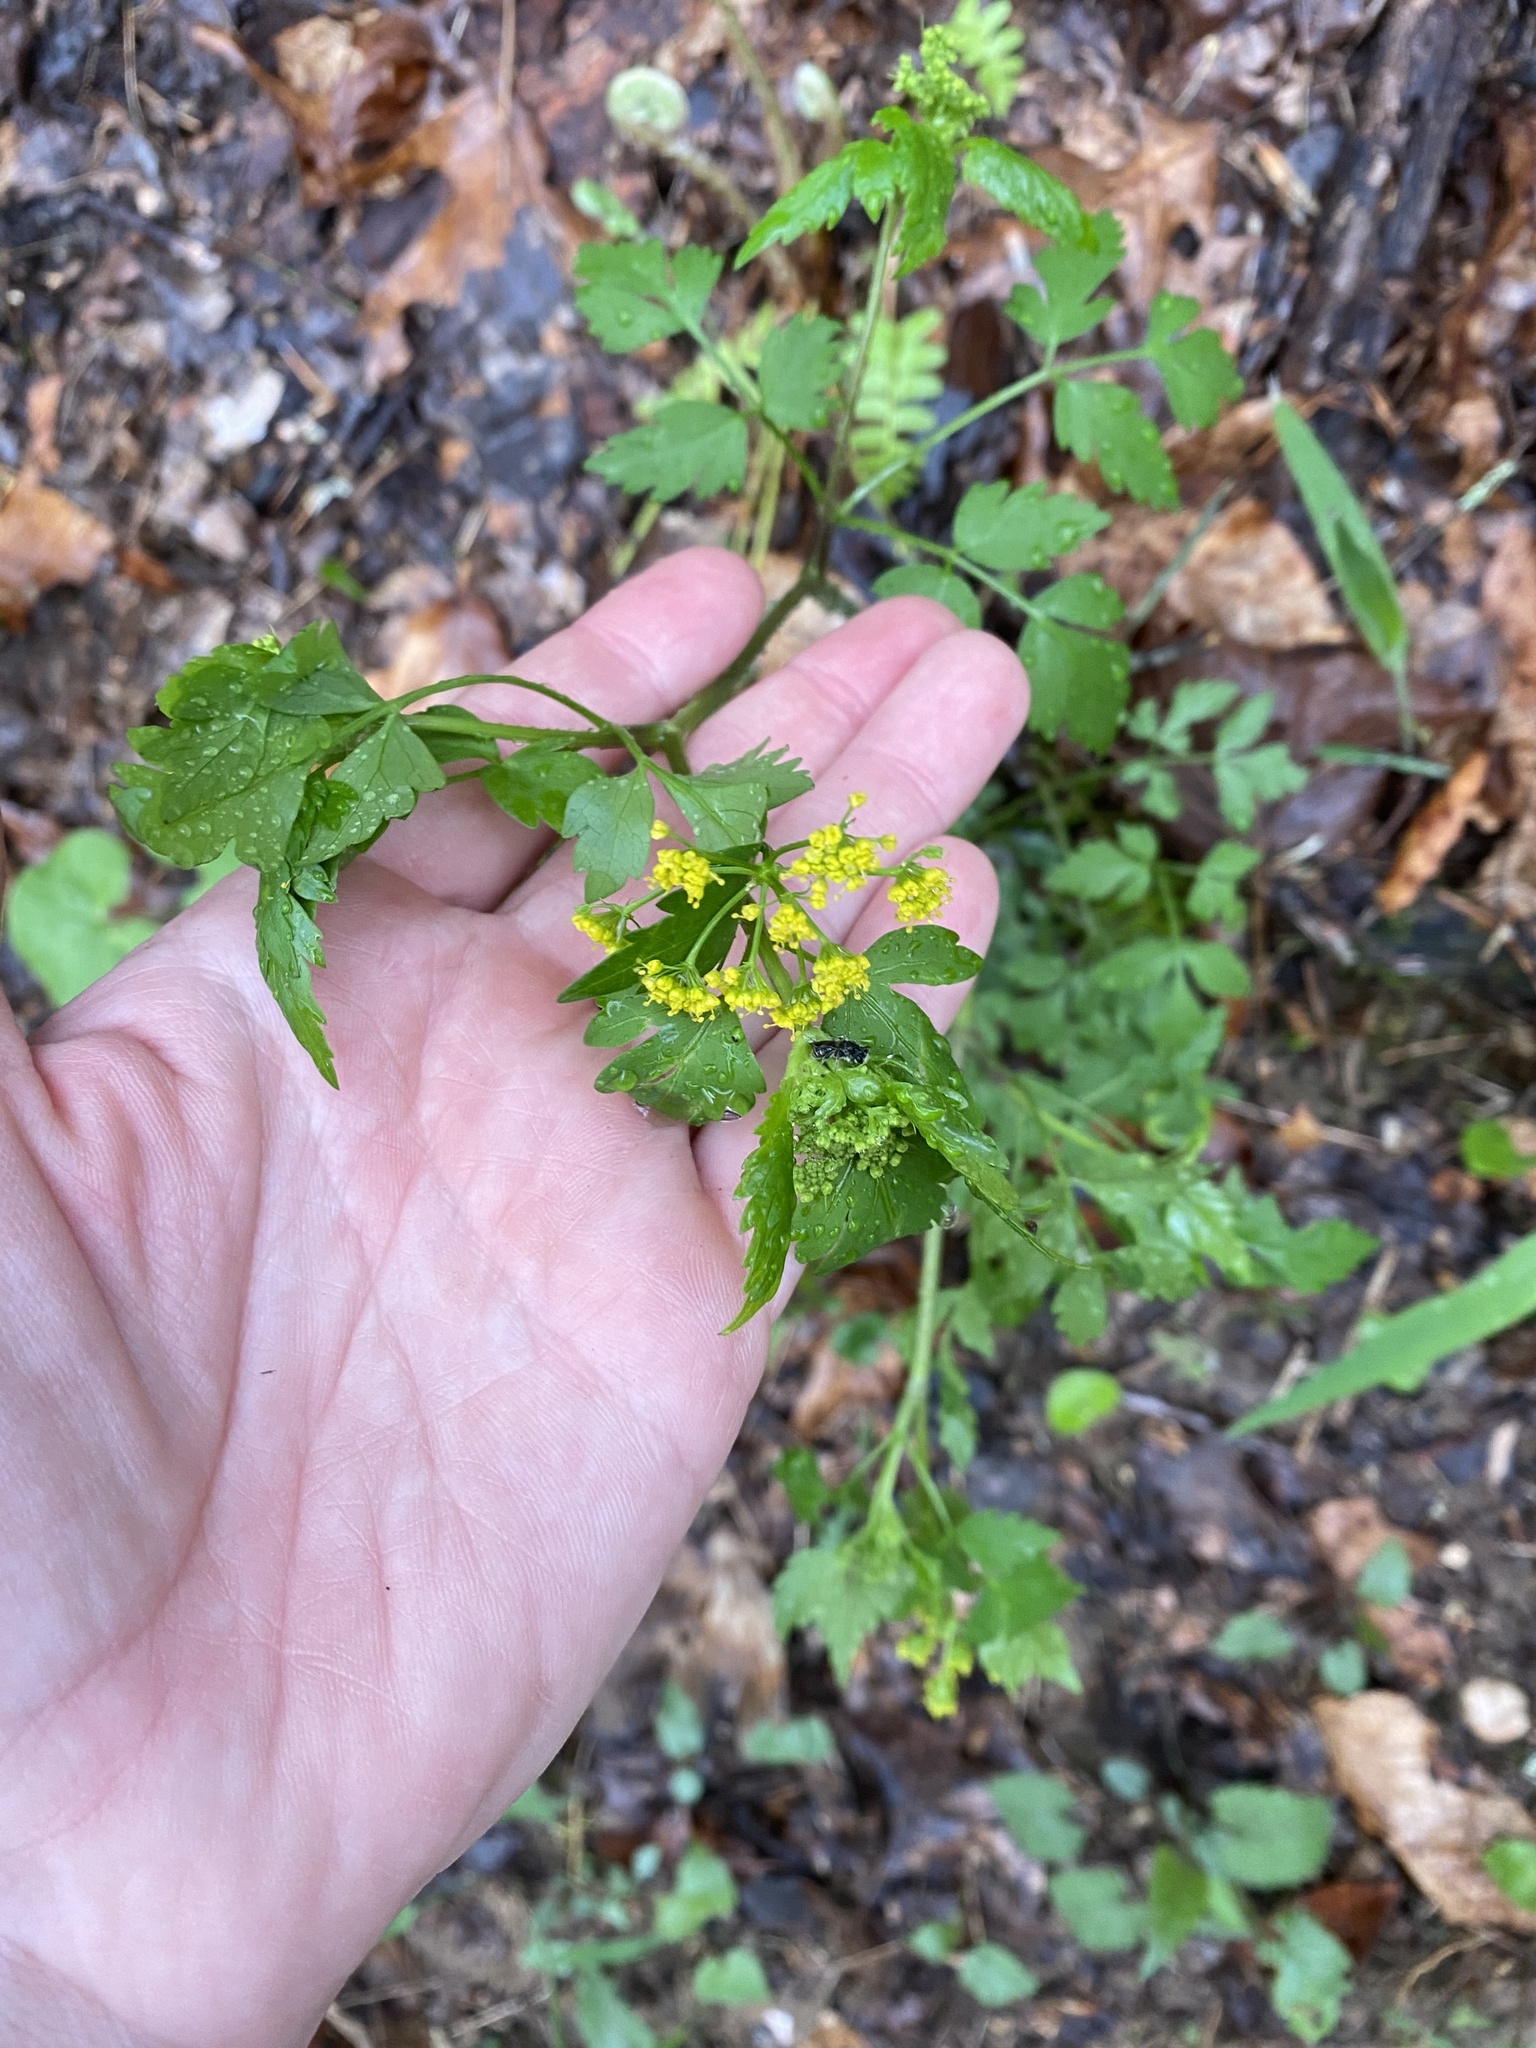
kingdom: Plantae
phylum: Tracheophyta
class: Magnoliopsida
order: Apiales
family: Apiaceae
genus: Thaspium
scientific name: Thaspium barbinode
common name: Bearded meadow-parsnip
